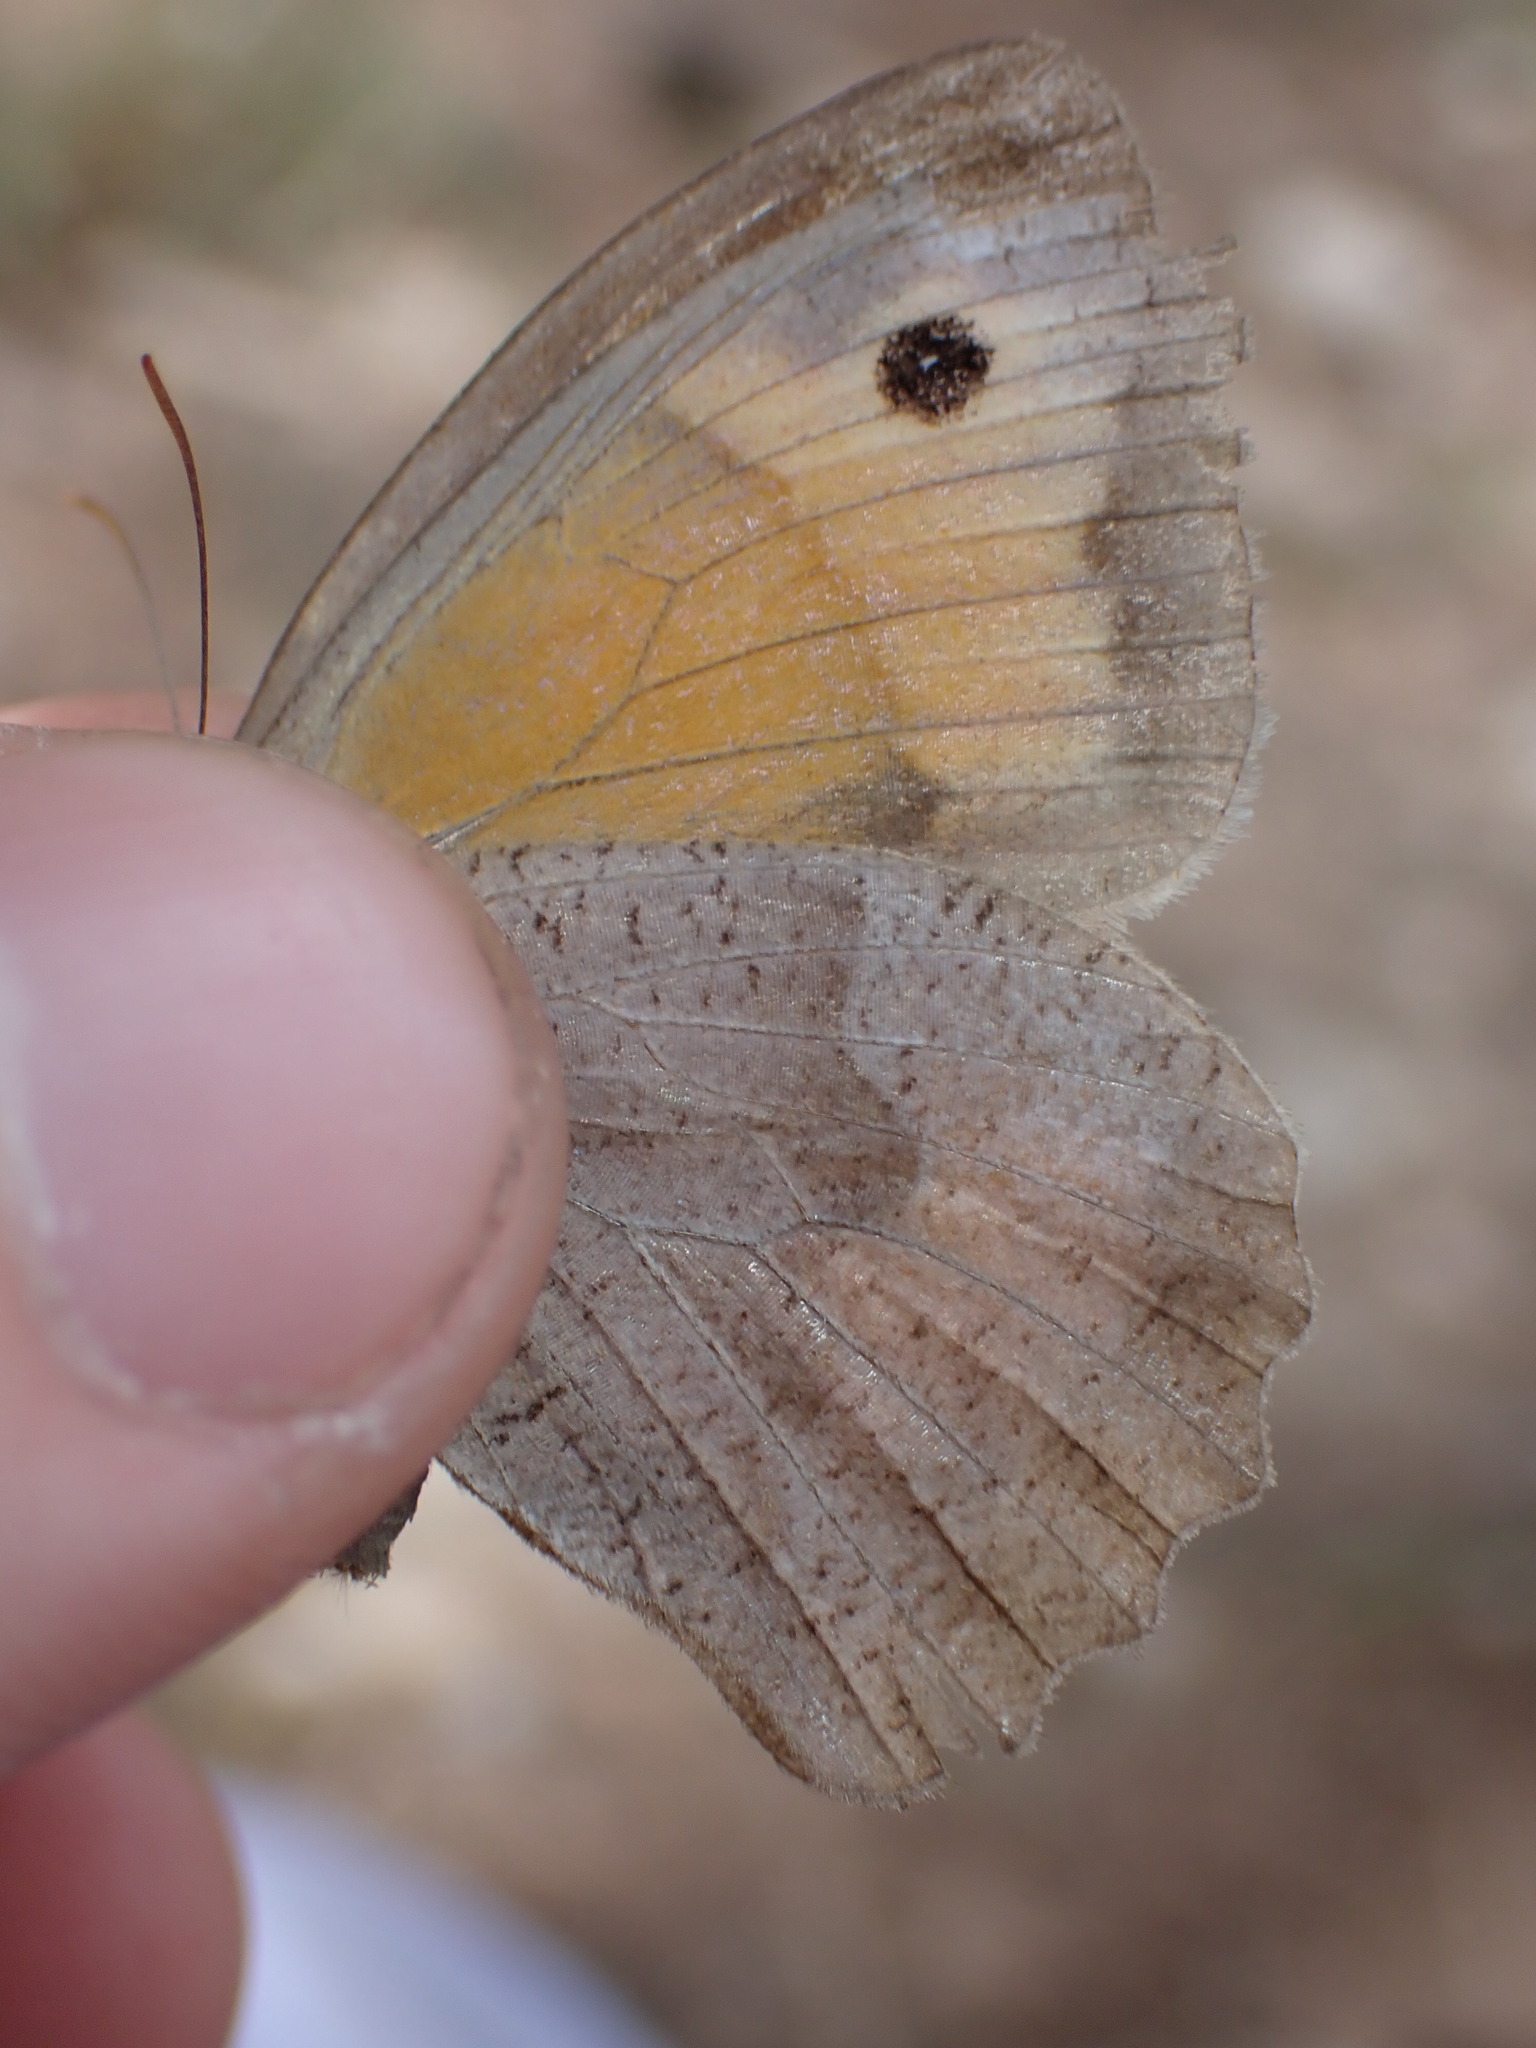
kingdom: Animalia
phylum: Arthropoda
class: Insecta
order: Lepidoptera
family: Nymphalidae
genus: Maniola
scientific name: Maniola jurtina
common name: Meadow brown
